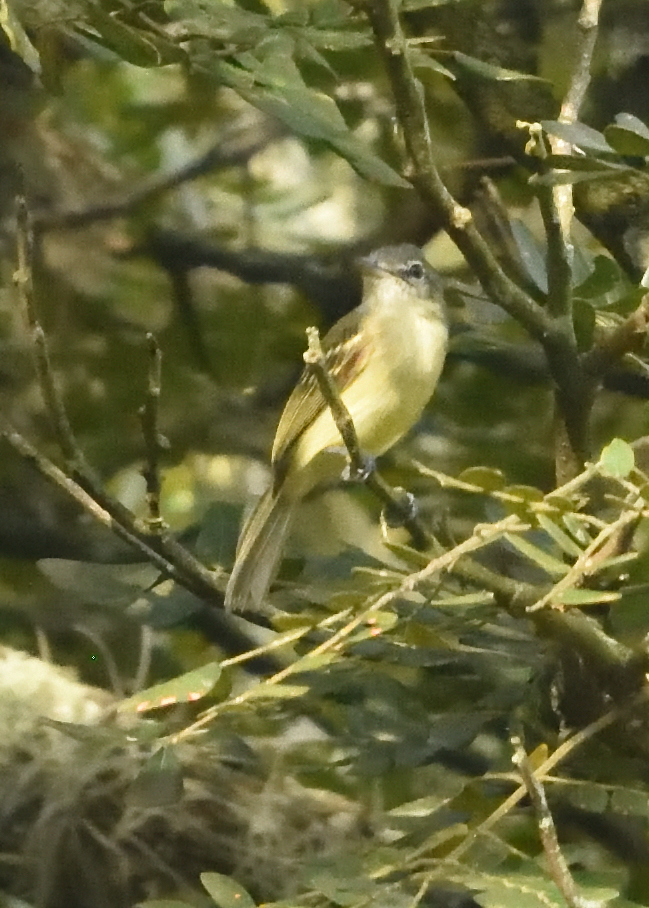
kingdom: Animalia
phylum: Chordata
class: Aves
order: Passeriformes
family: Tyrannidae
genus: Tolmomyias
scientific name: Tolmomyias sulphurescens
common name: Yellow-olive flycatcher
